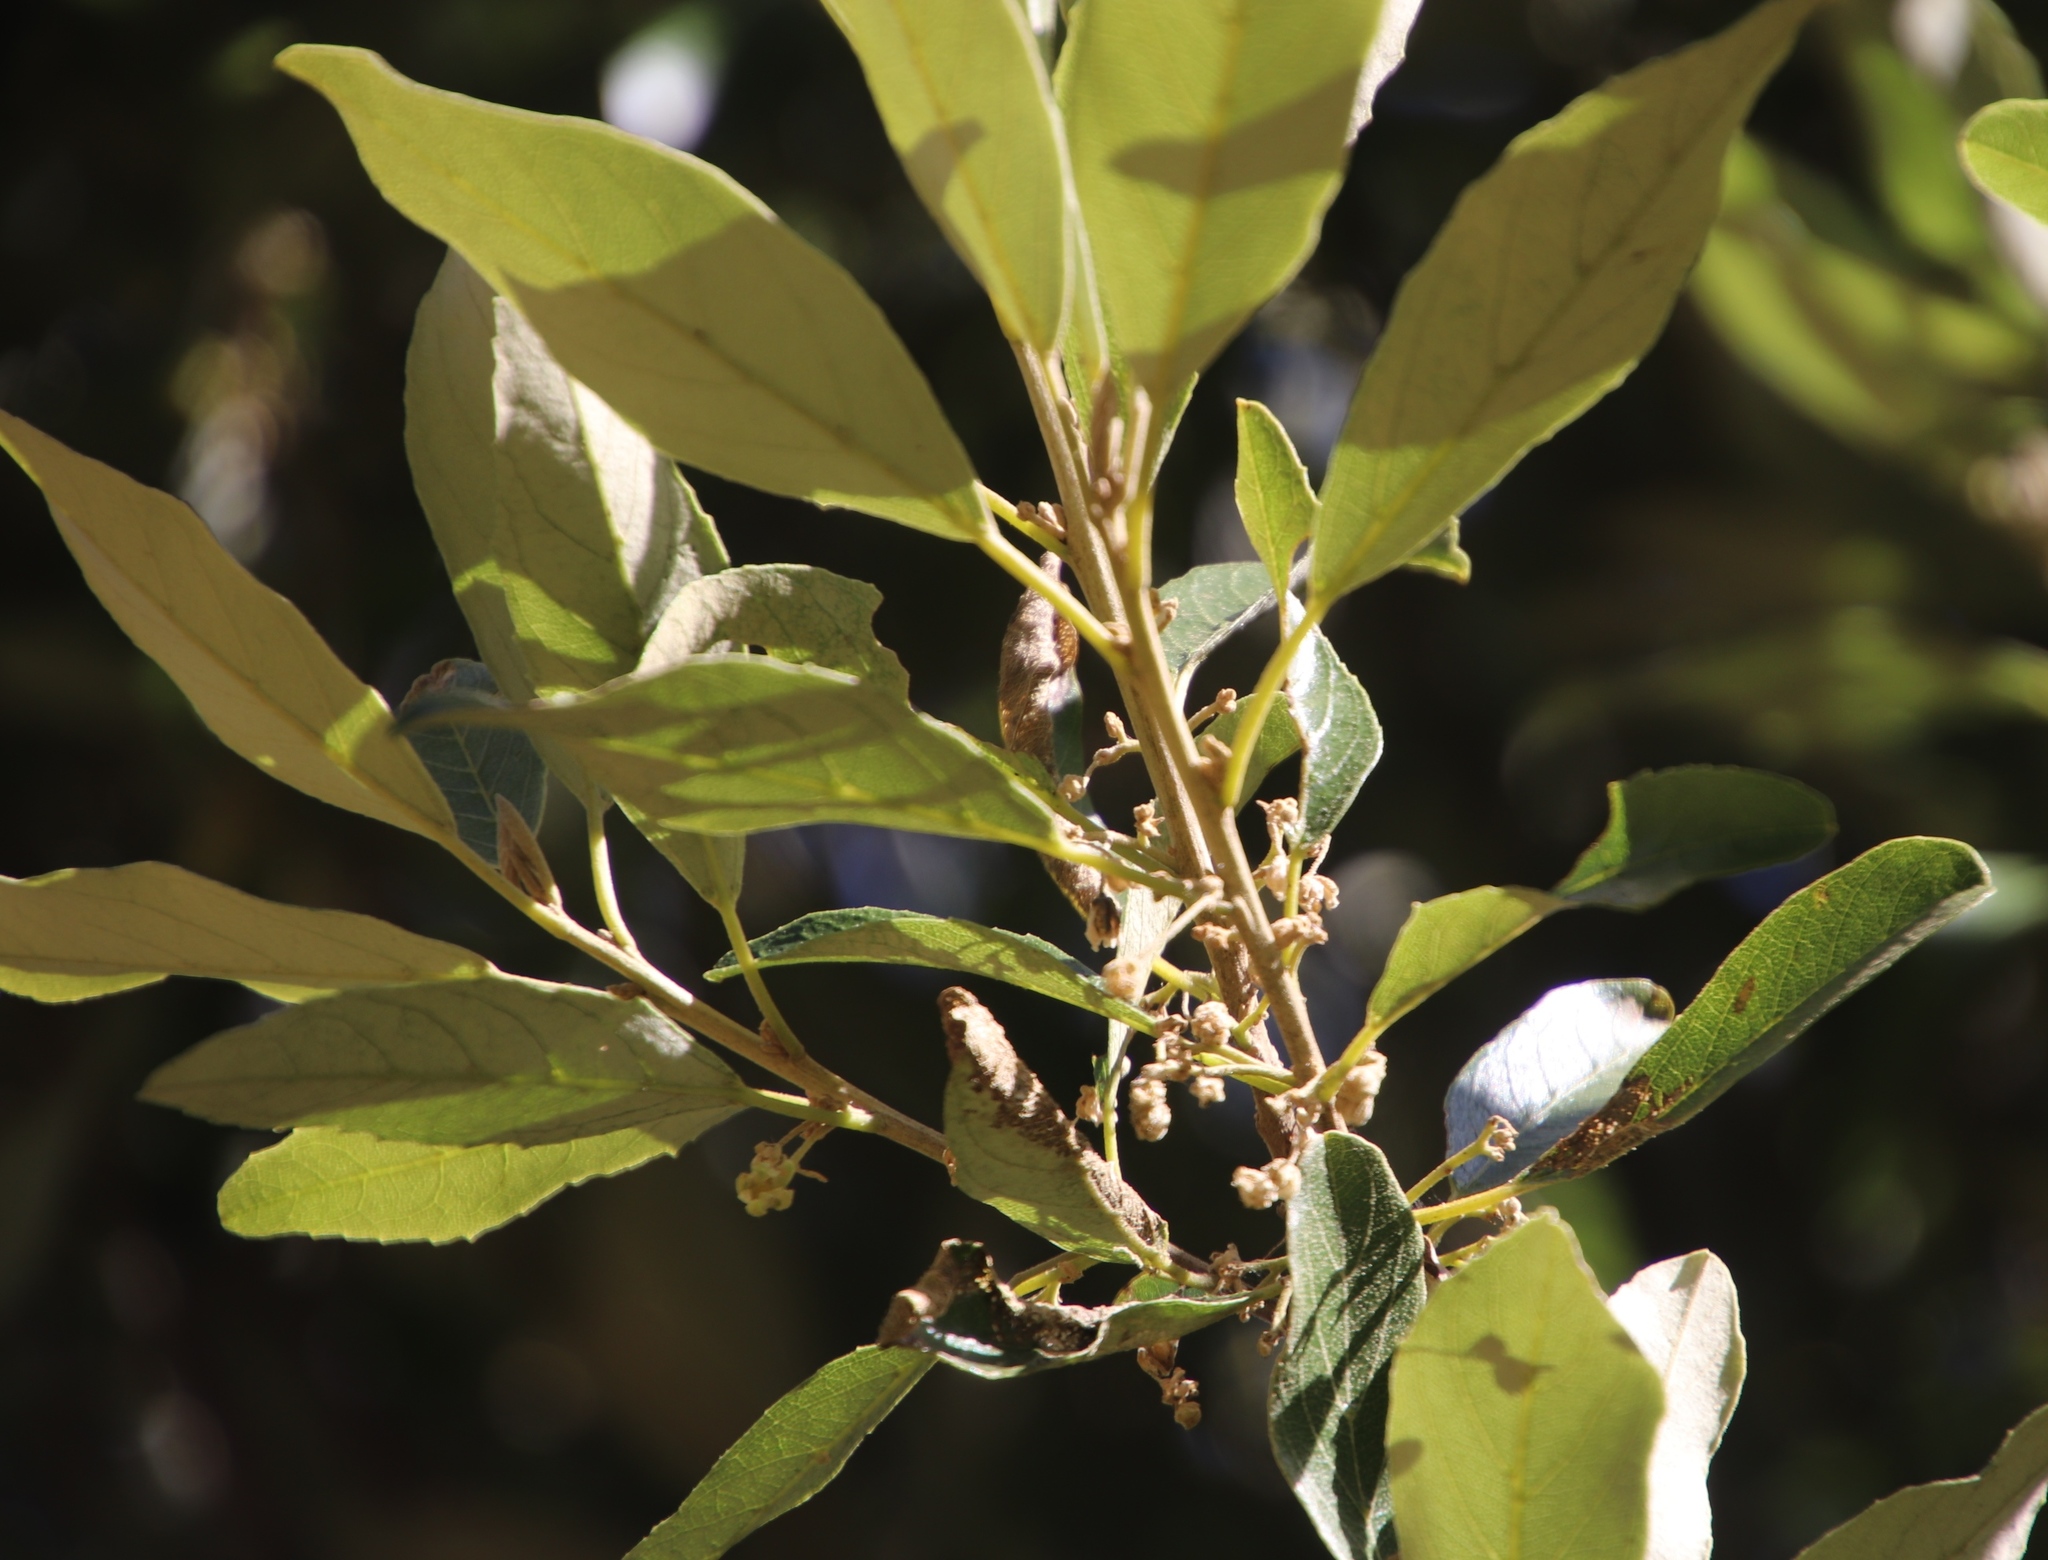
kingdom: Plantae
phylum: Tracheophyta
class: Magnoliopsida
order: Malpighiales
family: Achariaceae
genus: Kiggelaria
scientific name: Kiggelaria africana
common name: Wild peach
